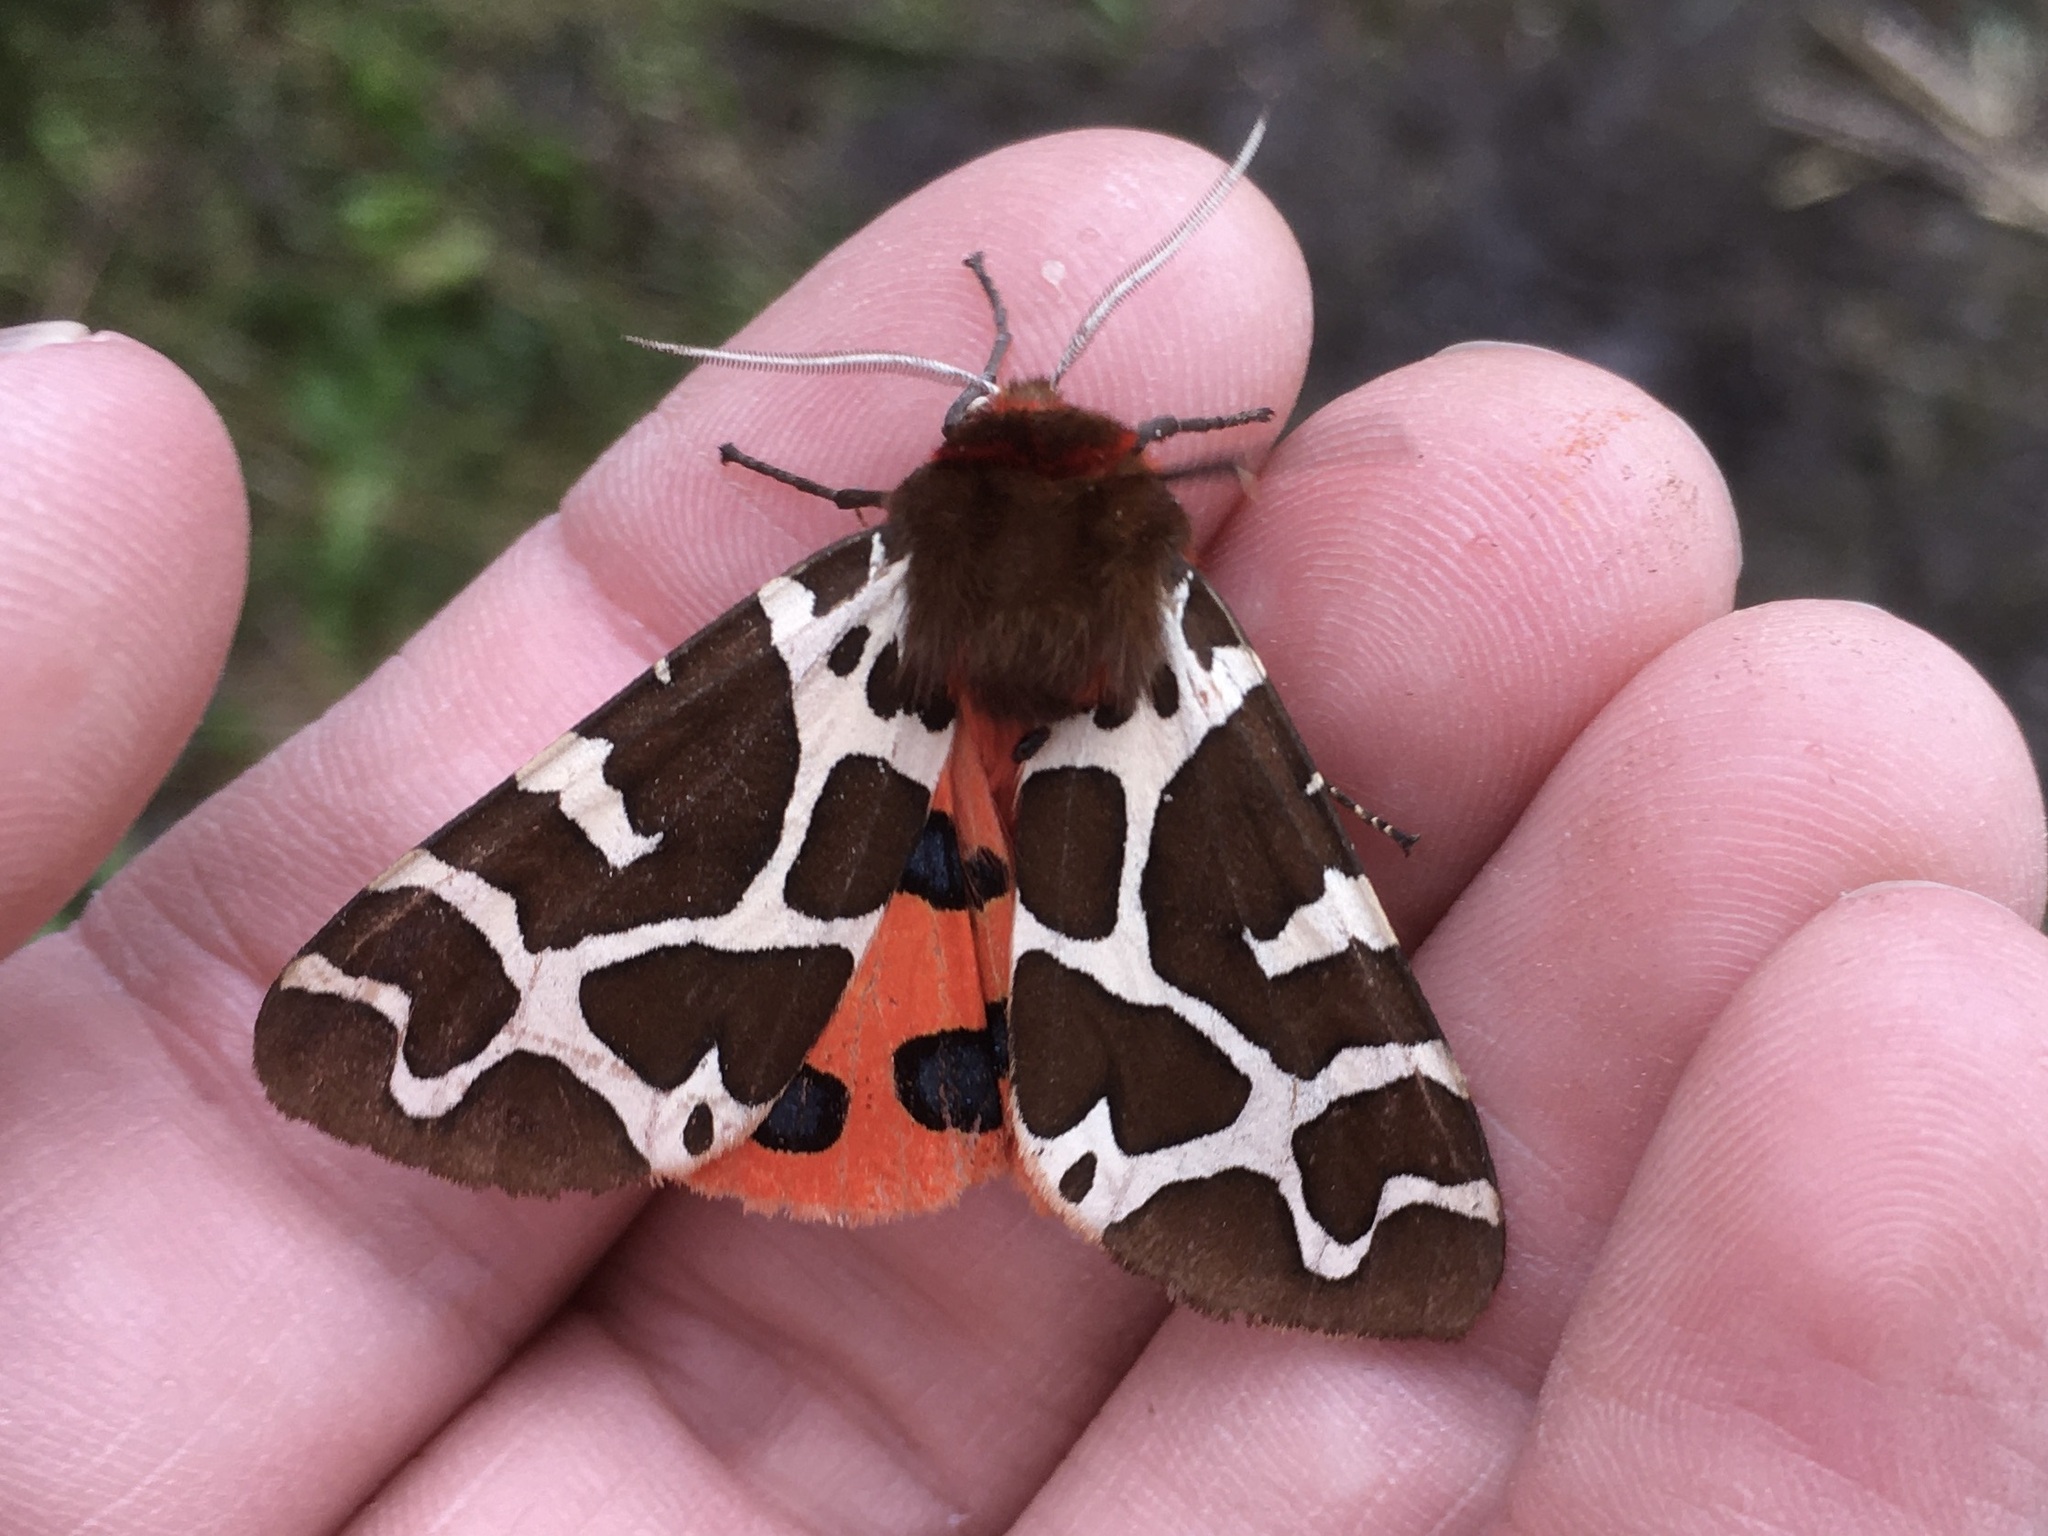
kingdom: Animalia
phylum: Arthropoda
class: Insecta
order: Lepidoptera
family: Erebidae
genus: Arctia
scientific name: Arctia caja
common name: Garden tiger
